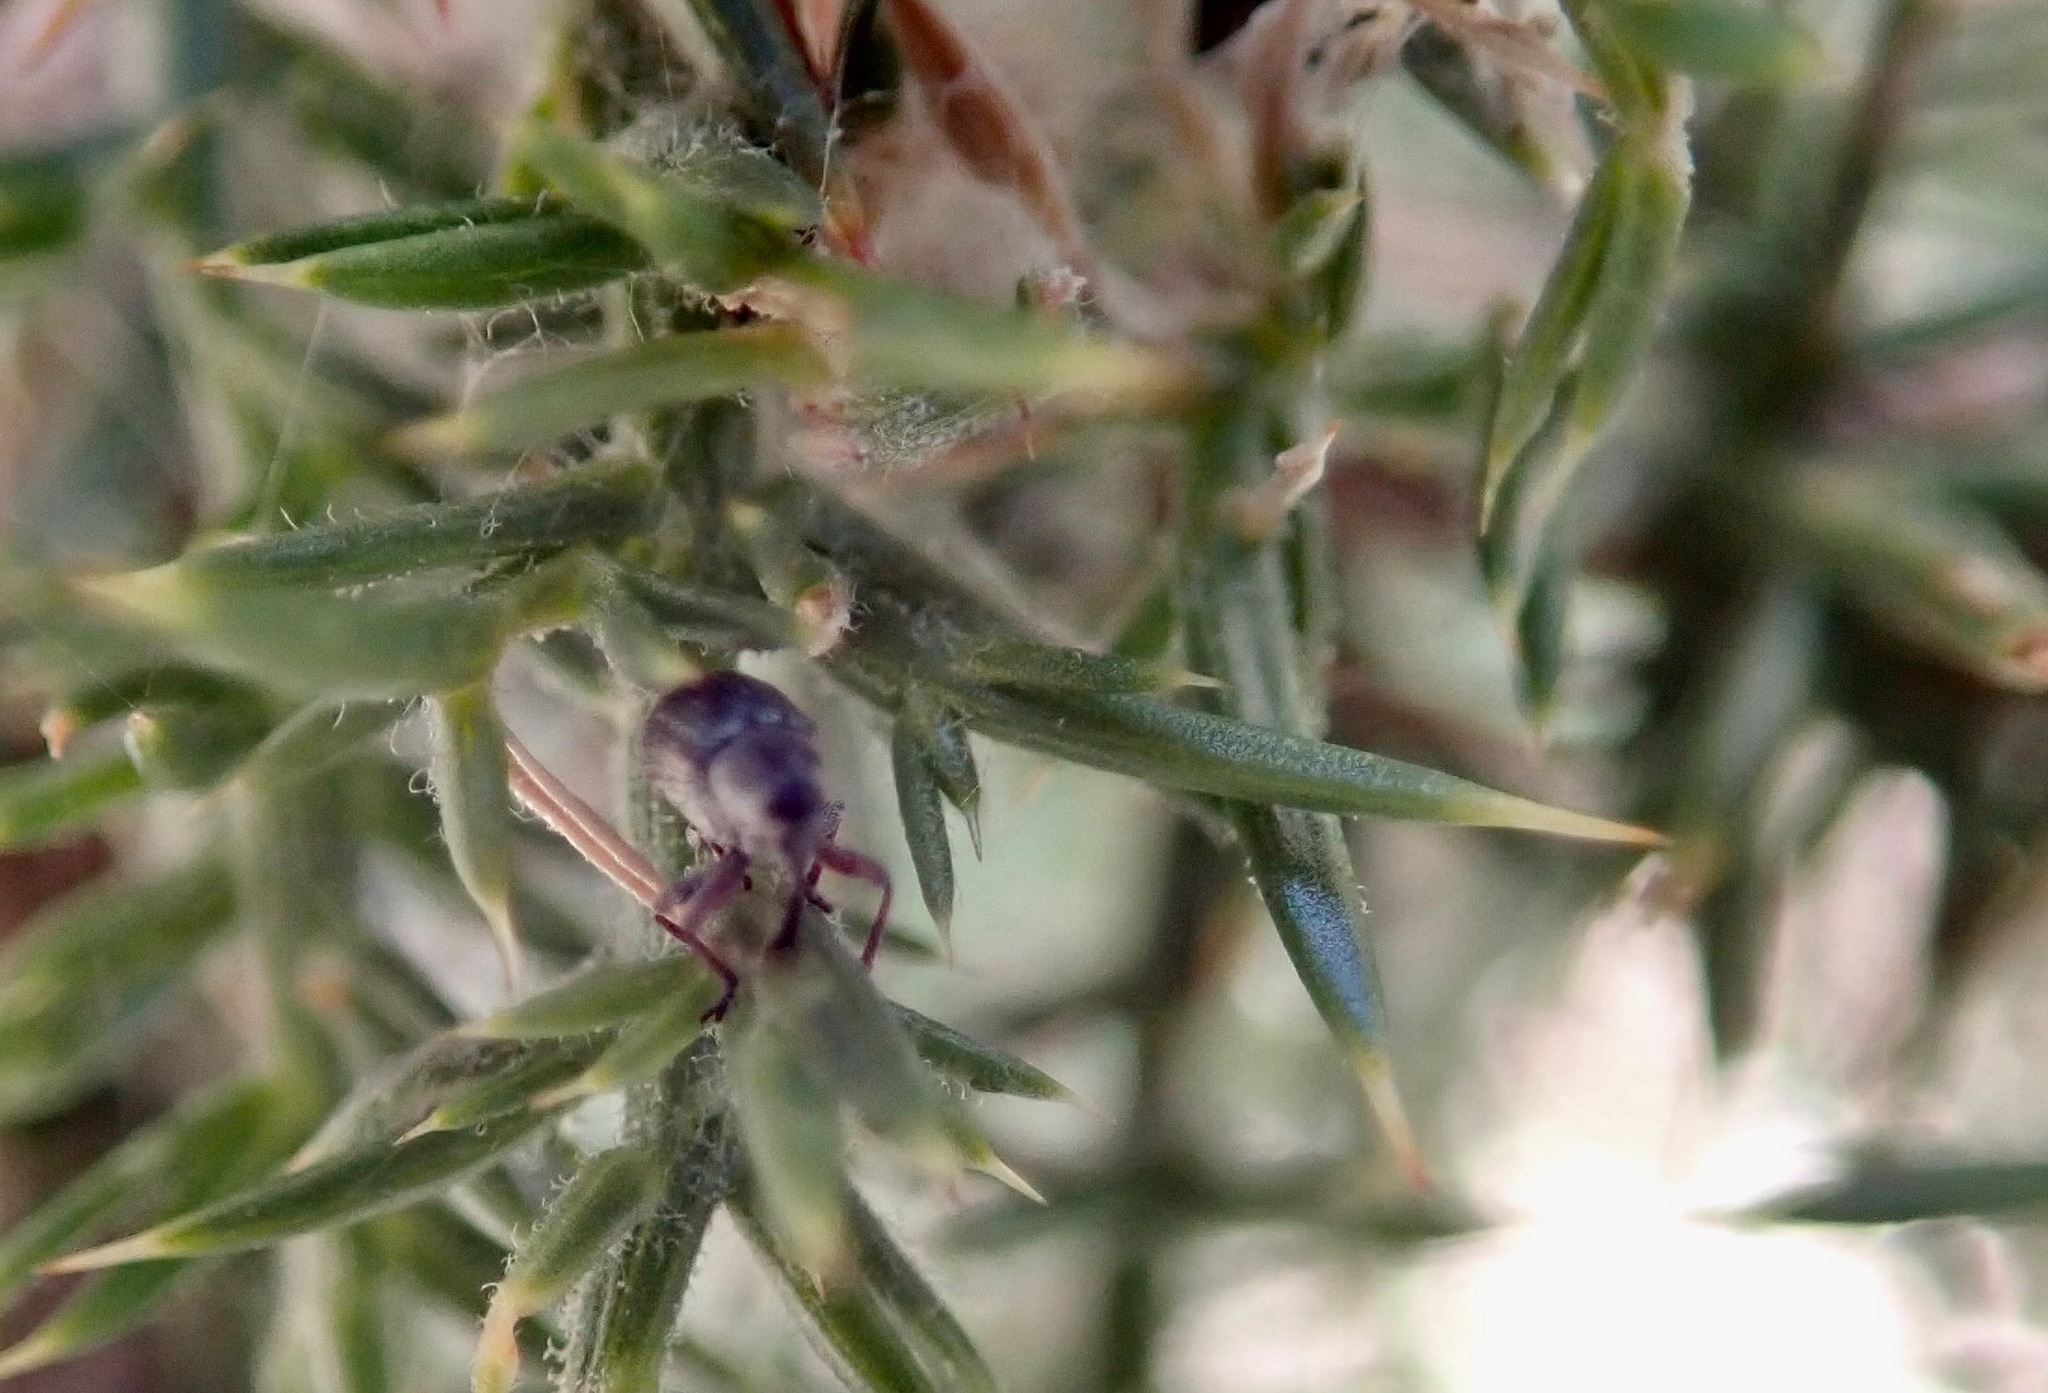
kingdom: Animalia
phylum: Arthropoda
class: Insecta
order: Coleoptera
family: Brentidae
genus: Exapion
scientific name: Exapion ulicis
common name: Gorse seed weevil
